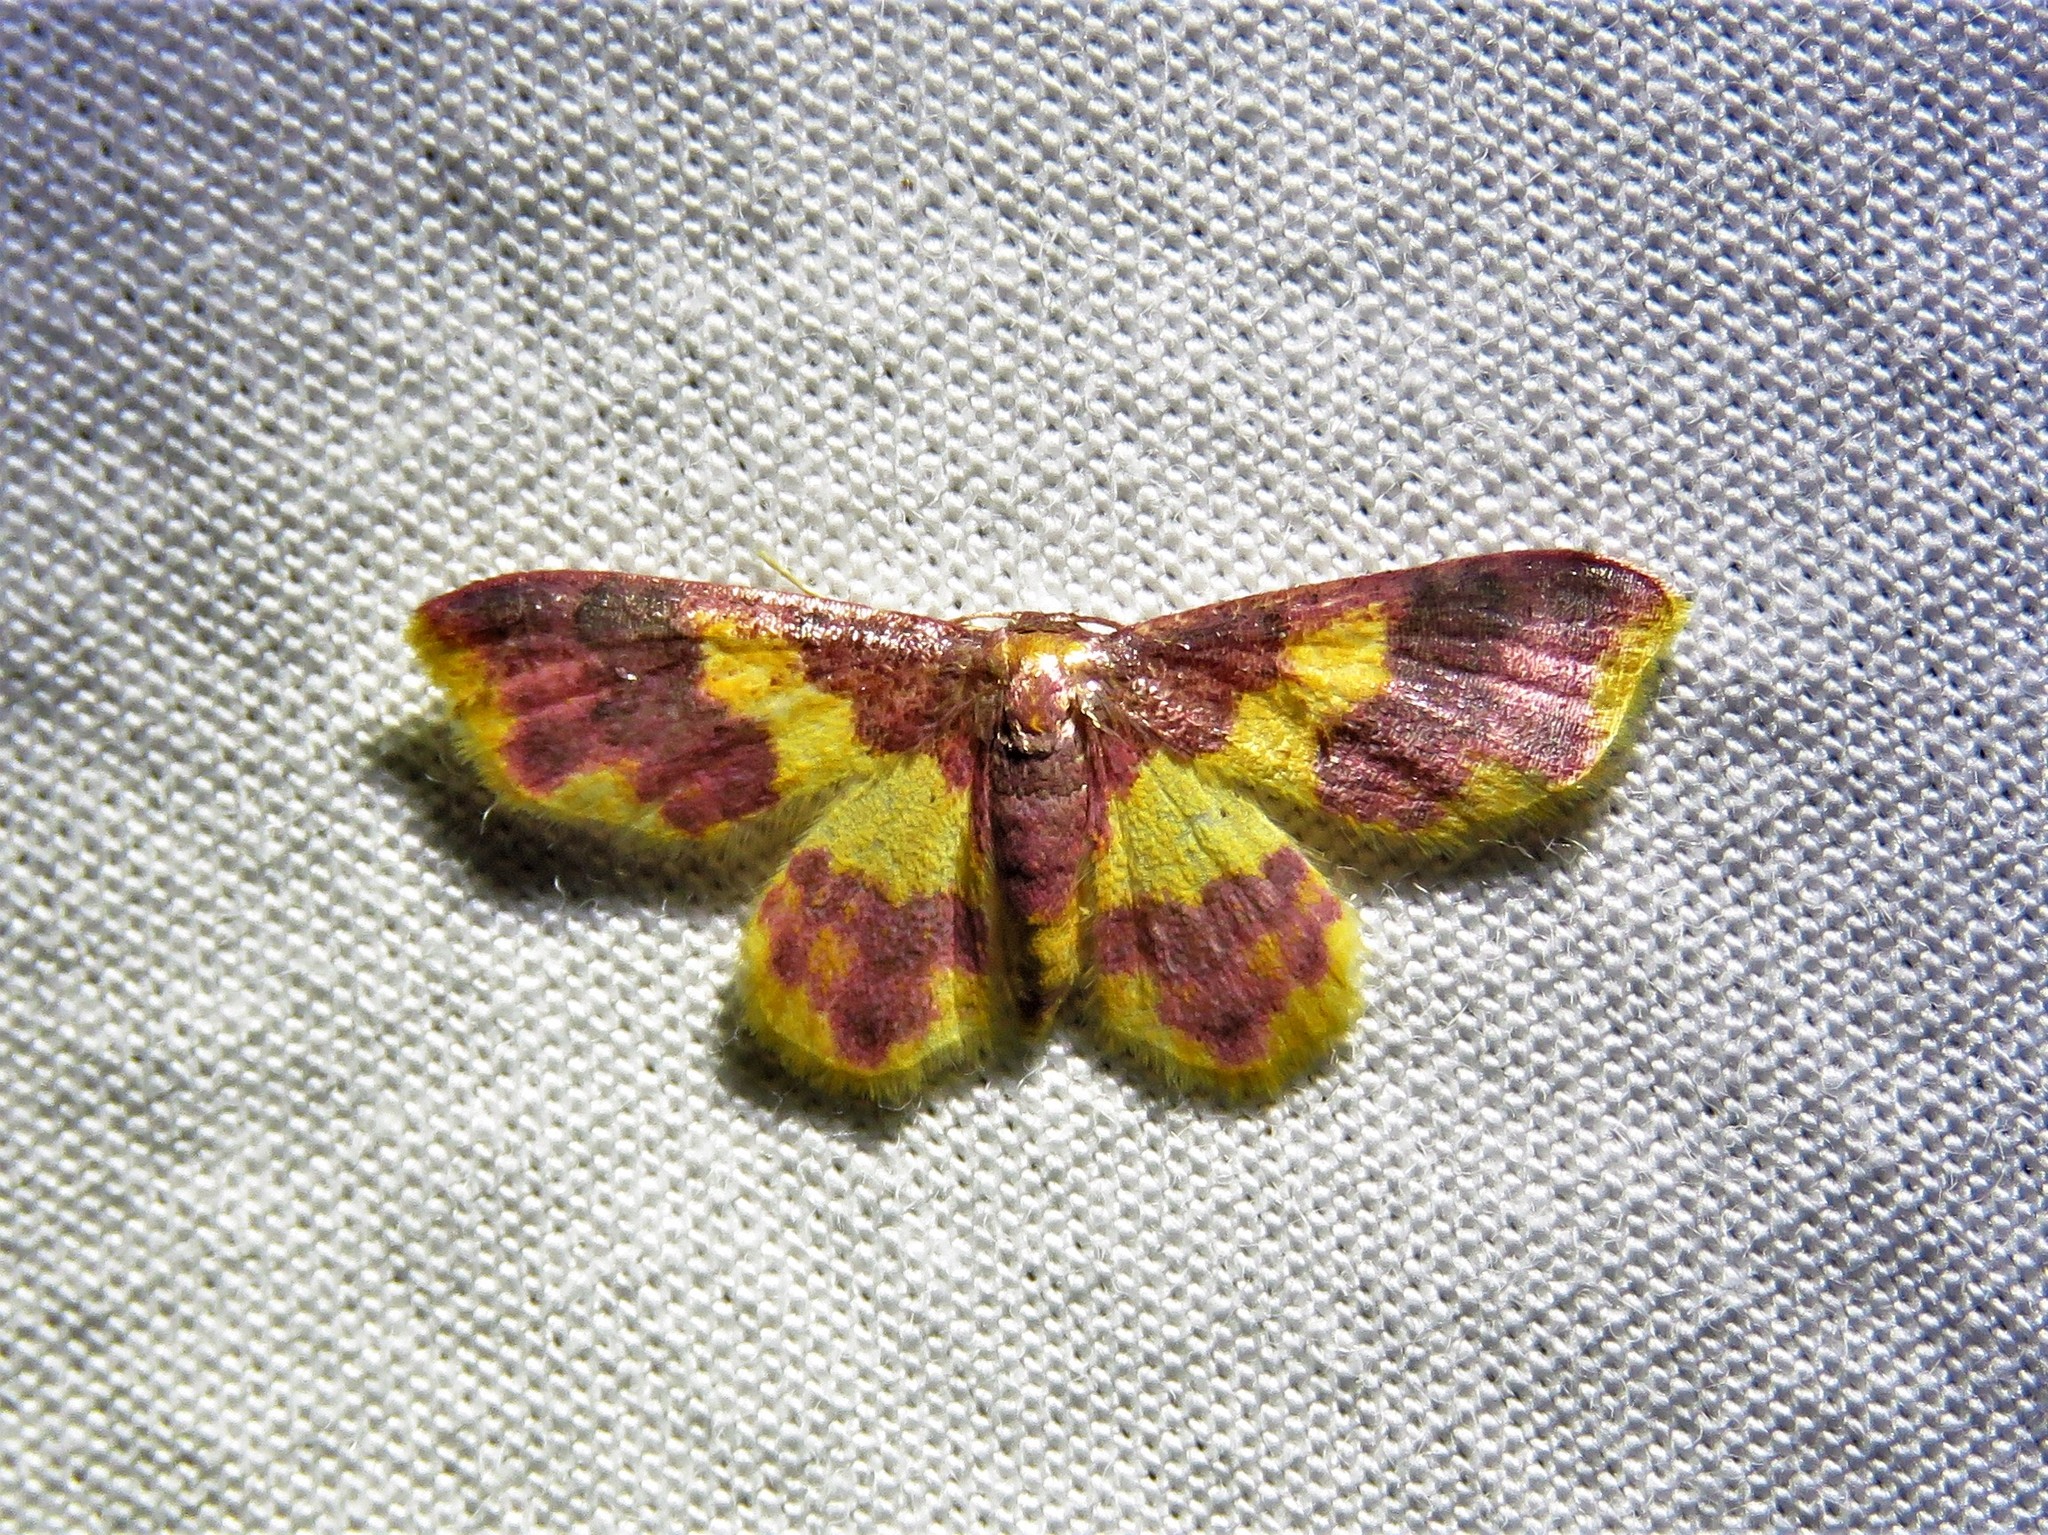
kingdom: Animalia
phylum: Arthropoda
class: Insecta
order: Lepidoptera
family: Geometridae
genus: Lophosis
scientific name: Lophosis labeculata
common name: Stained lophosis moth
